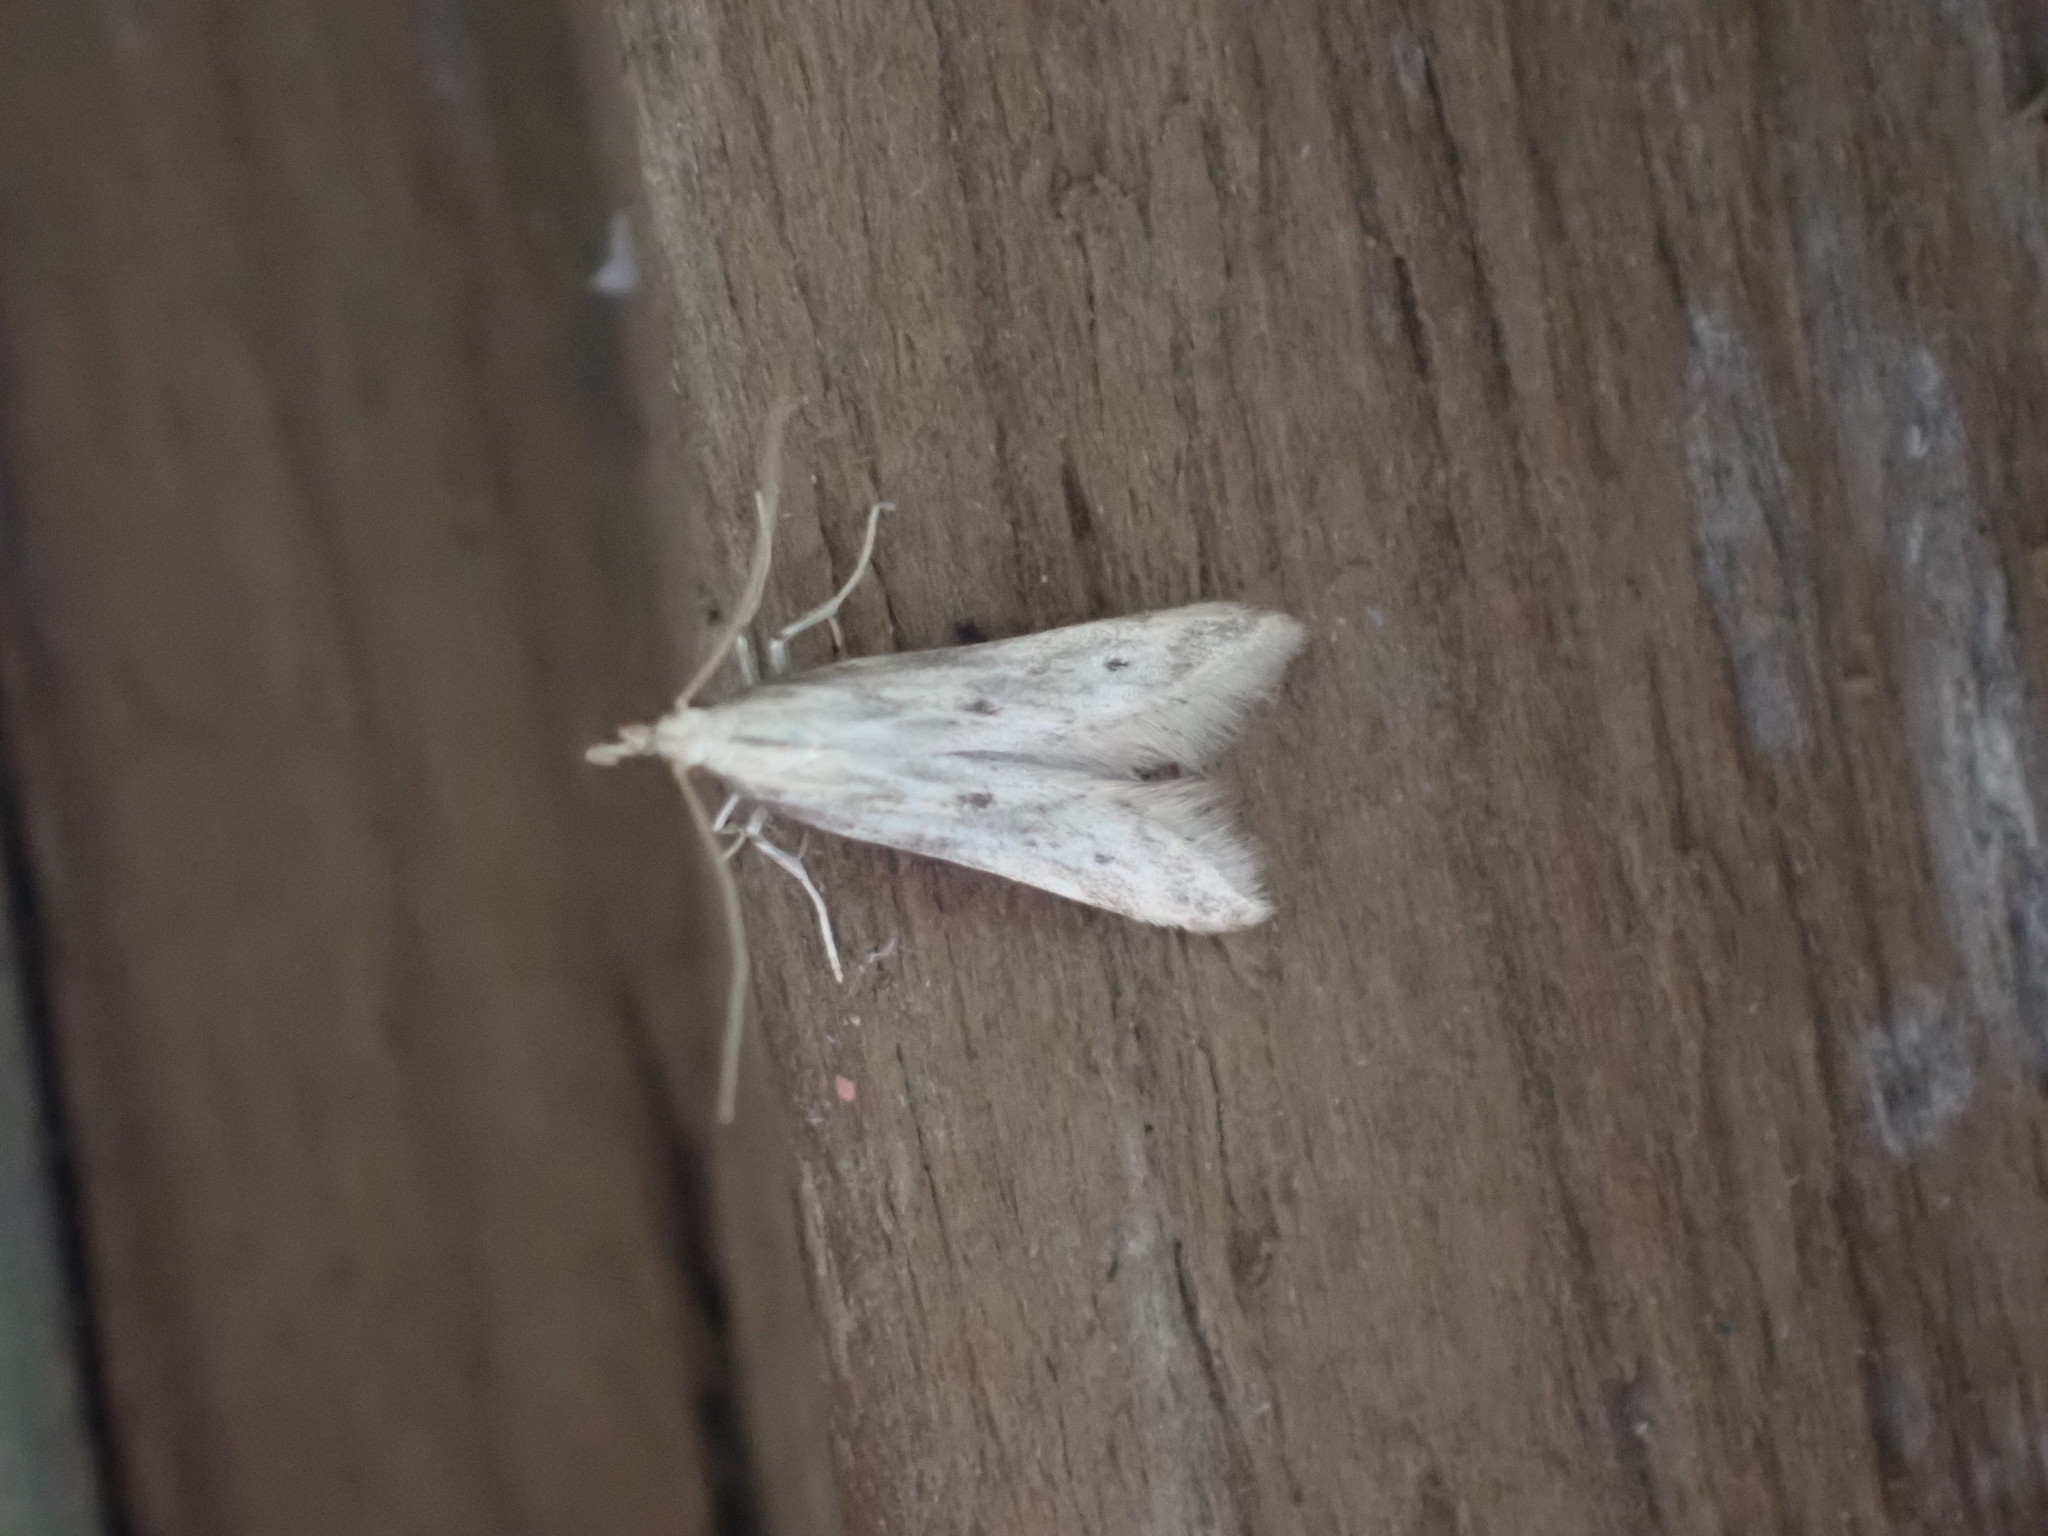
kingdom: Animalia
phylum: Arthropoda
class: Insecta
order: Lepidoptera
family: Gelechiidae
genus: Metzneria
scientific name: Metzneria lappella
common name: Burdock neb
